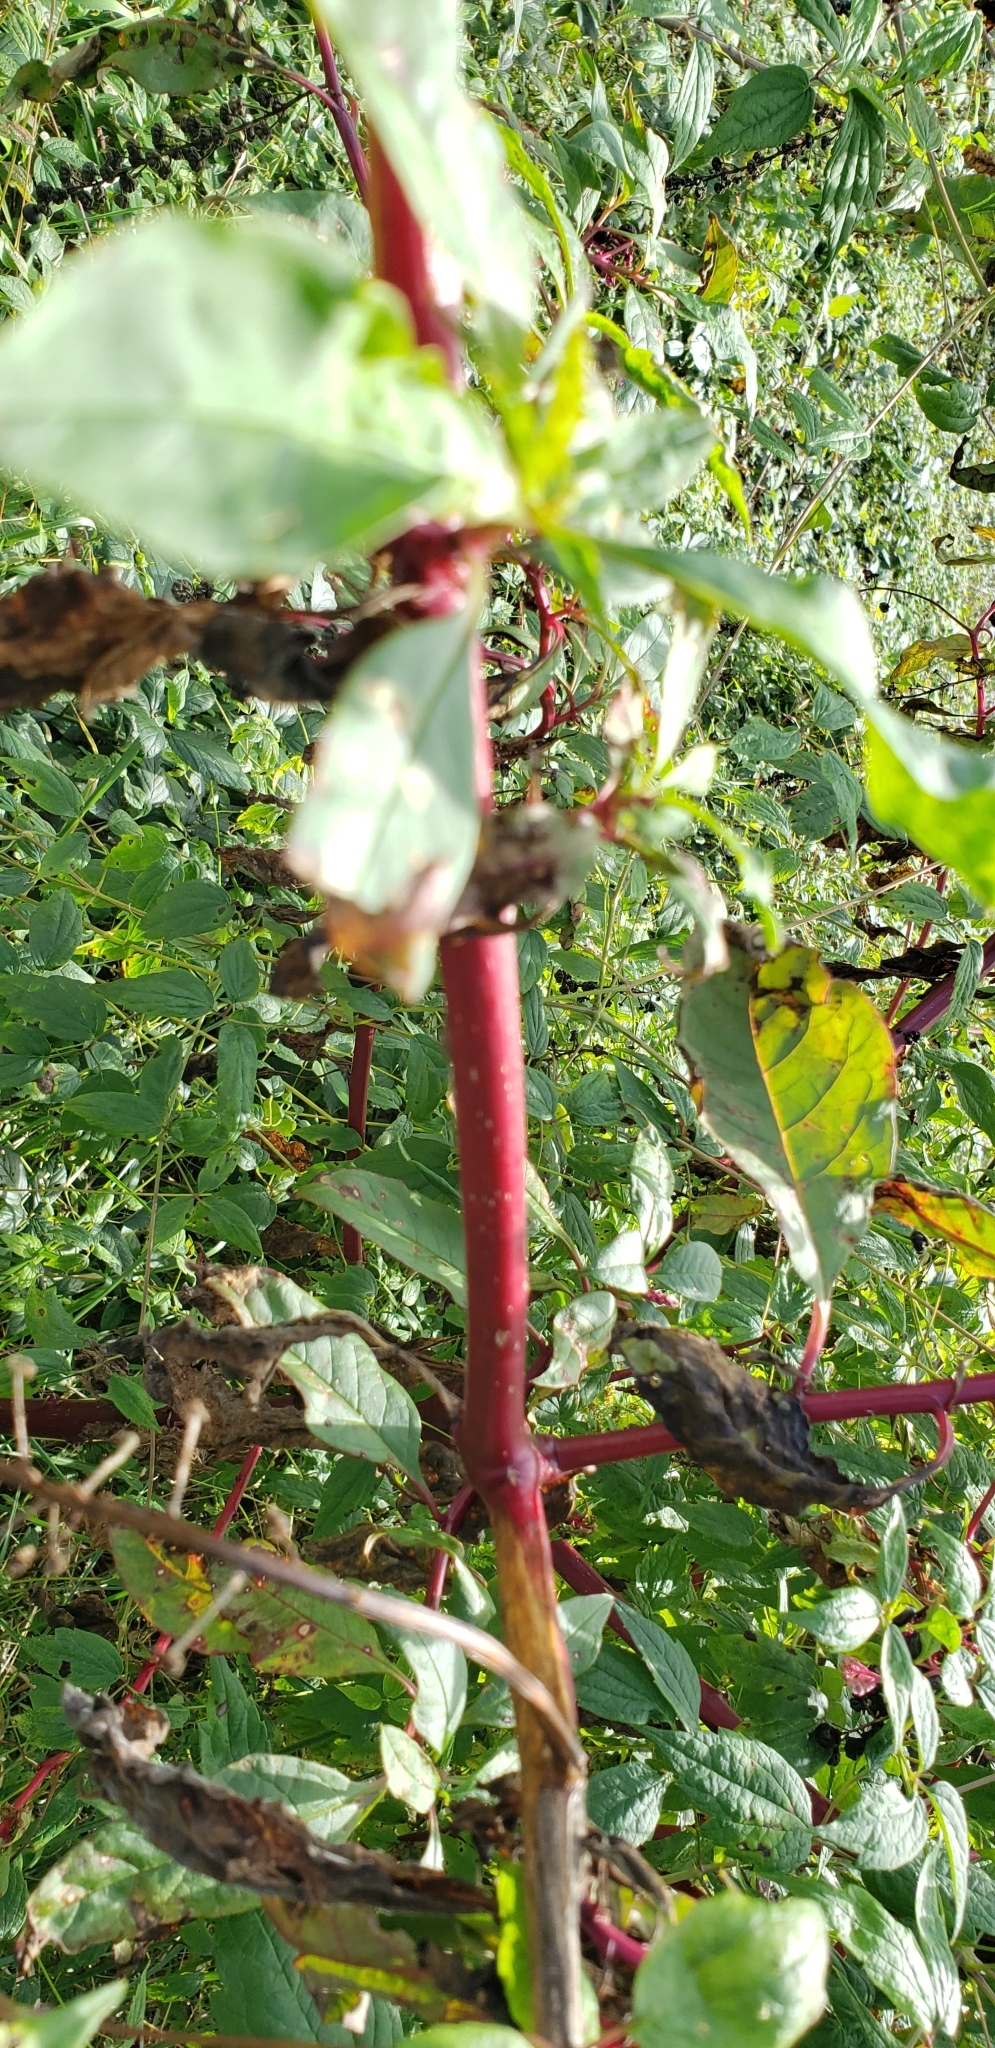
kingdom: Plantae
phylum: Tracheophyta
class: Magnoliopsida
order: Caryophyllales
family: Phytolaccaceae
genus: Phytolacca
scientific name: Phytolacca americana
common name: American pokeweed
